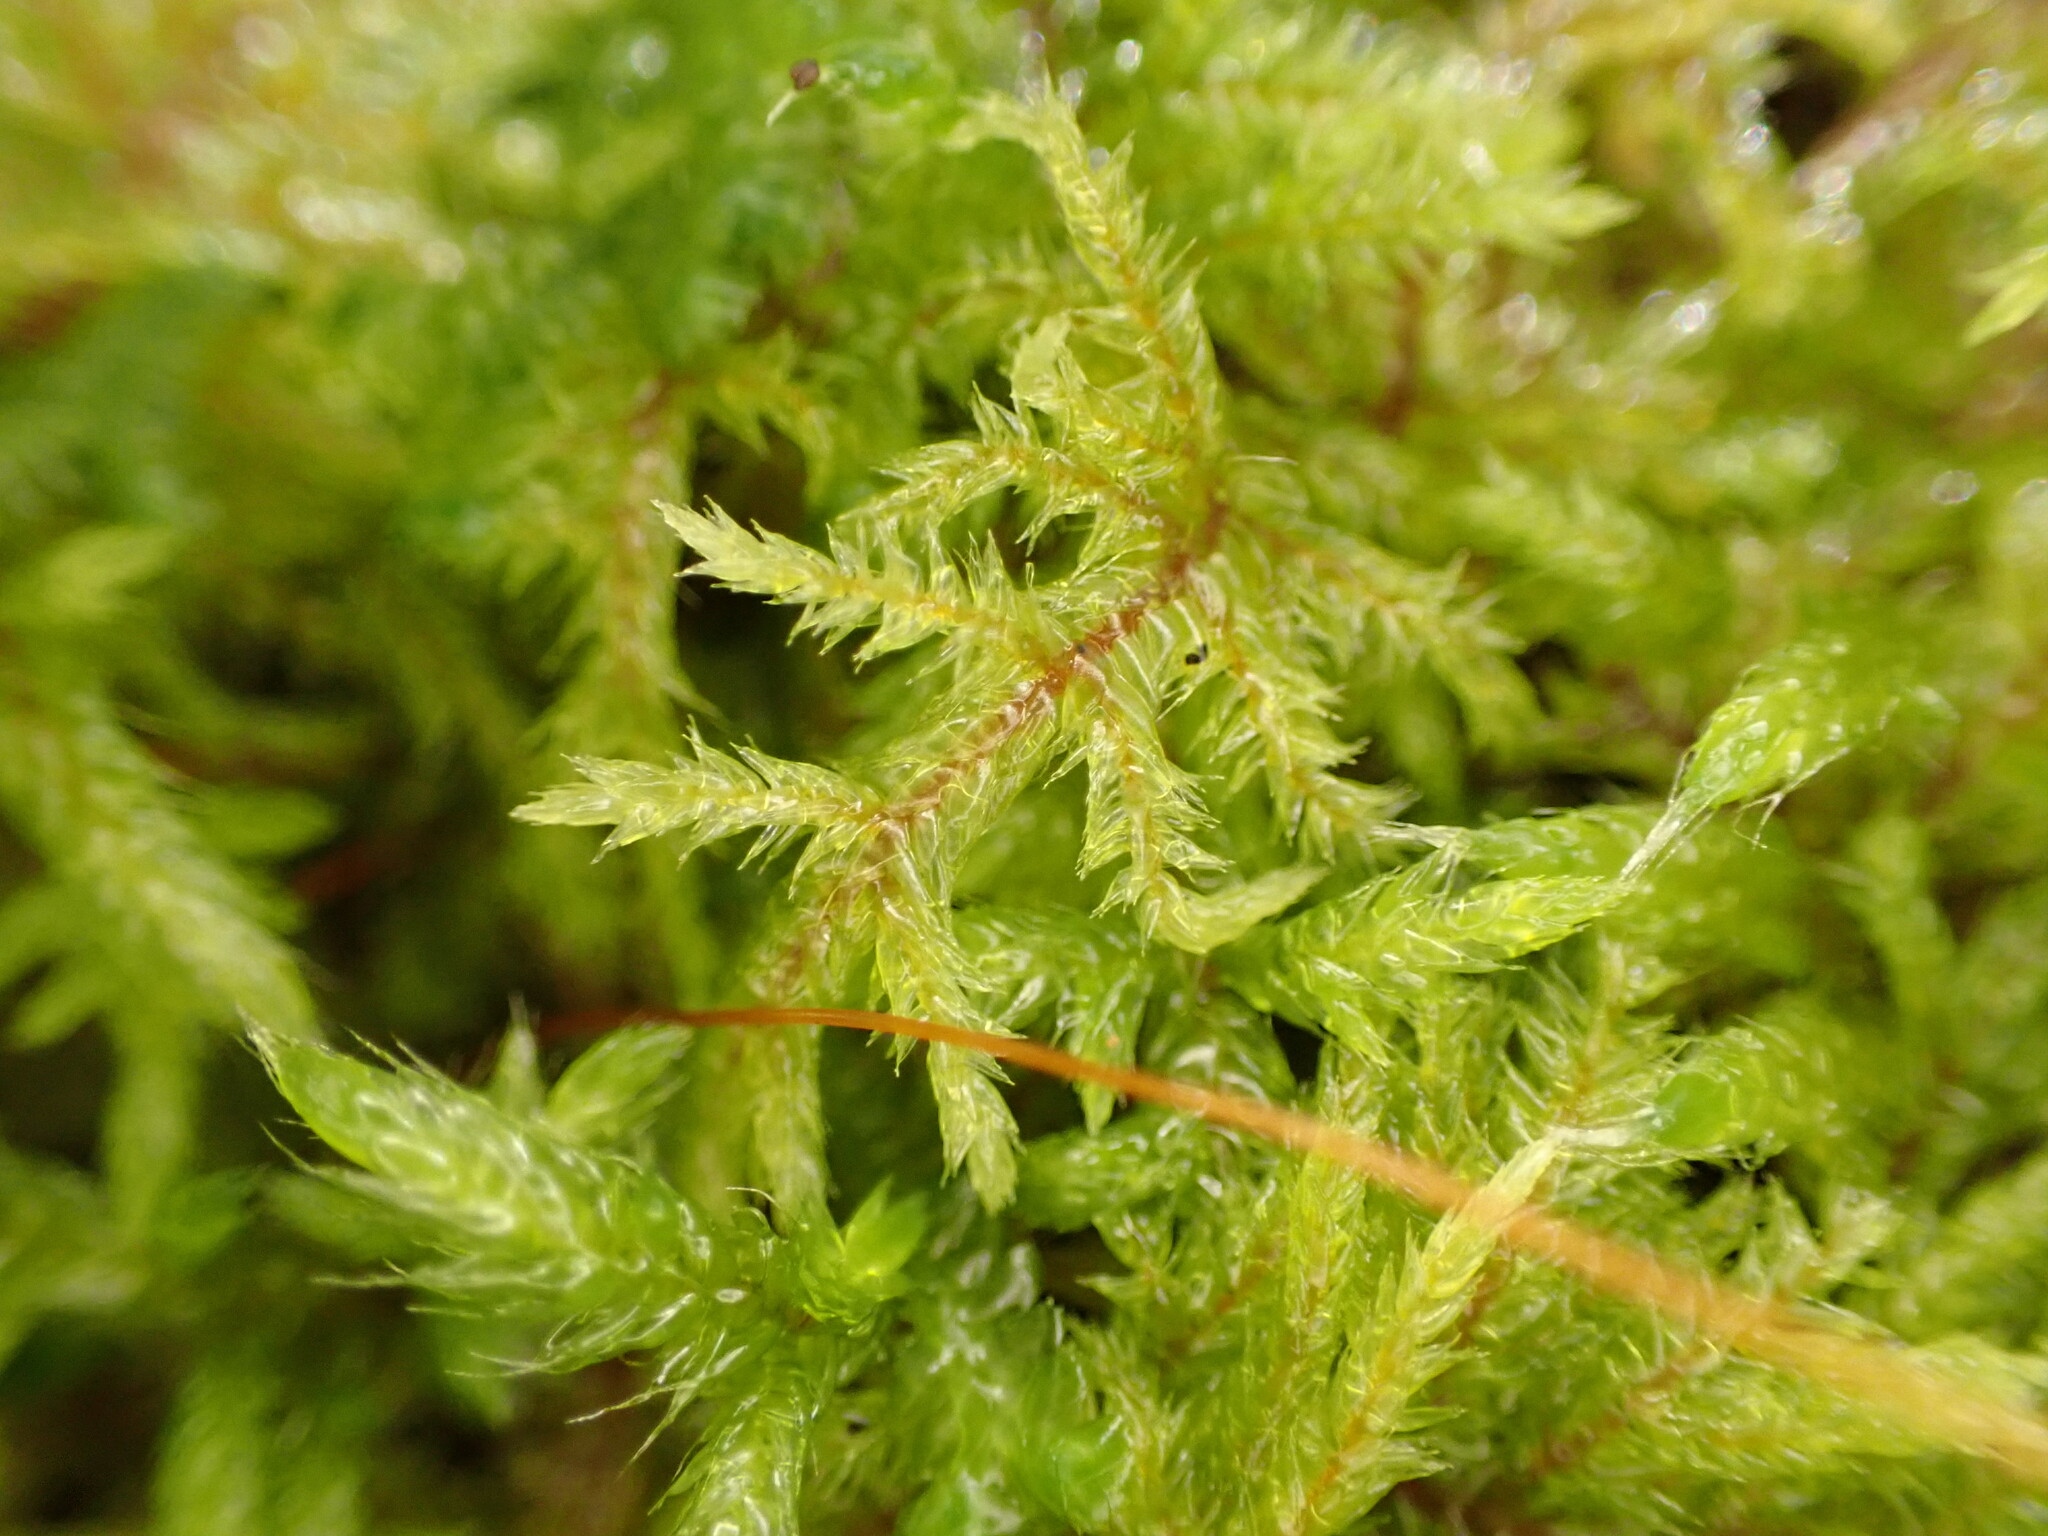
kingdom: Plantae
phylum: Bryophyta
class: Bryopsida
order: Hypnales
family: Pylaisiadelphaceae
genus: Wijkia
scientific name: Wijkia extenuata
